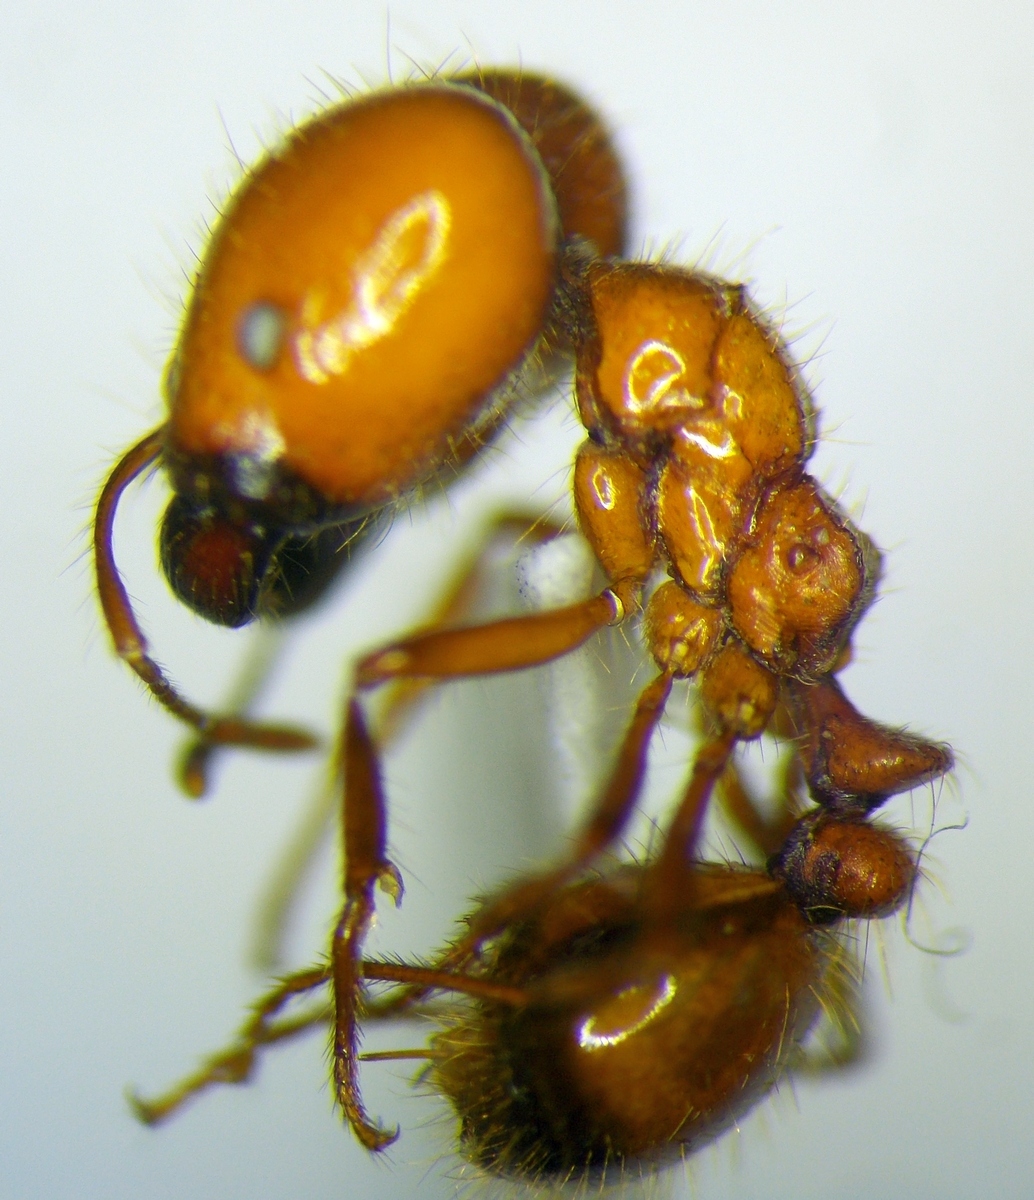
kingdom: Animalia
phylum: Arthropoda
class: Insecta
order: Hymenoptera
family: Formicidae
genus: Solenopsis
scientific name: Solenopsis geminata
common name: Tropical fire ant
